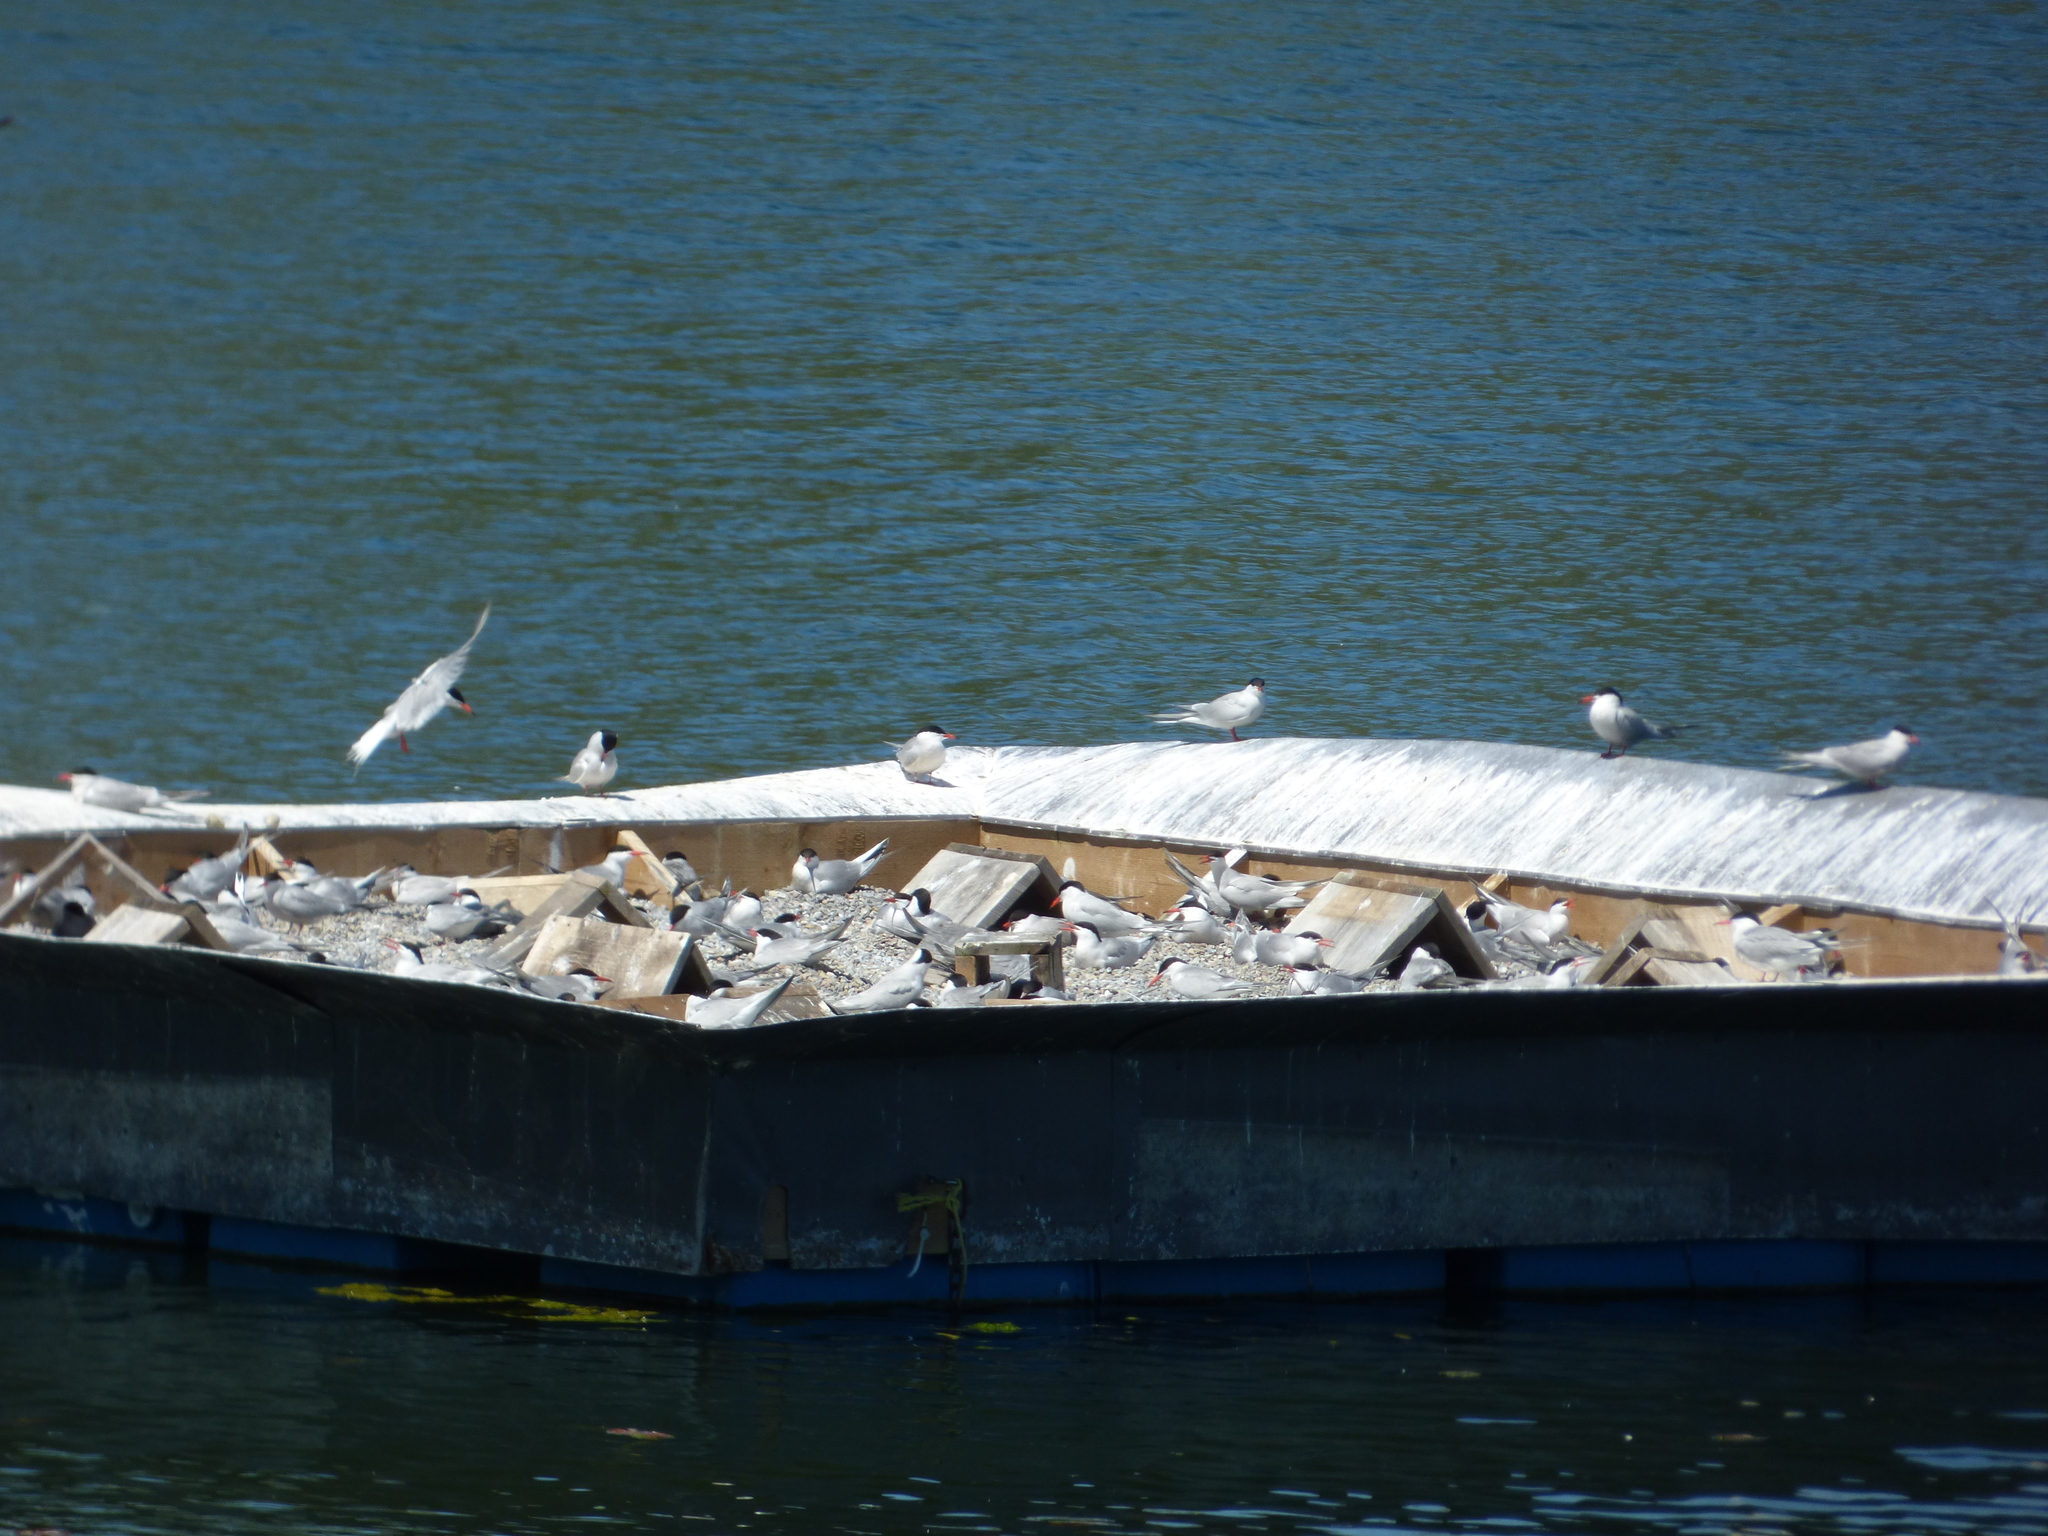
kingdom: Animalia
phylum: Chordata
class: Aves
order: Charadriiformes
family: Laridae
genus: Sterna
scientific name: Sterna hirundo
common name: Common tern
